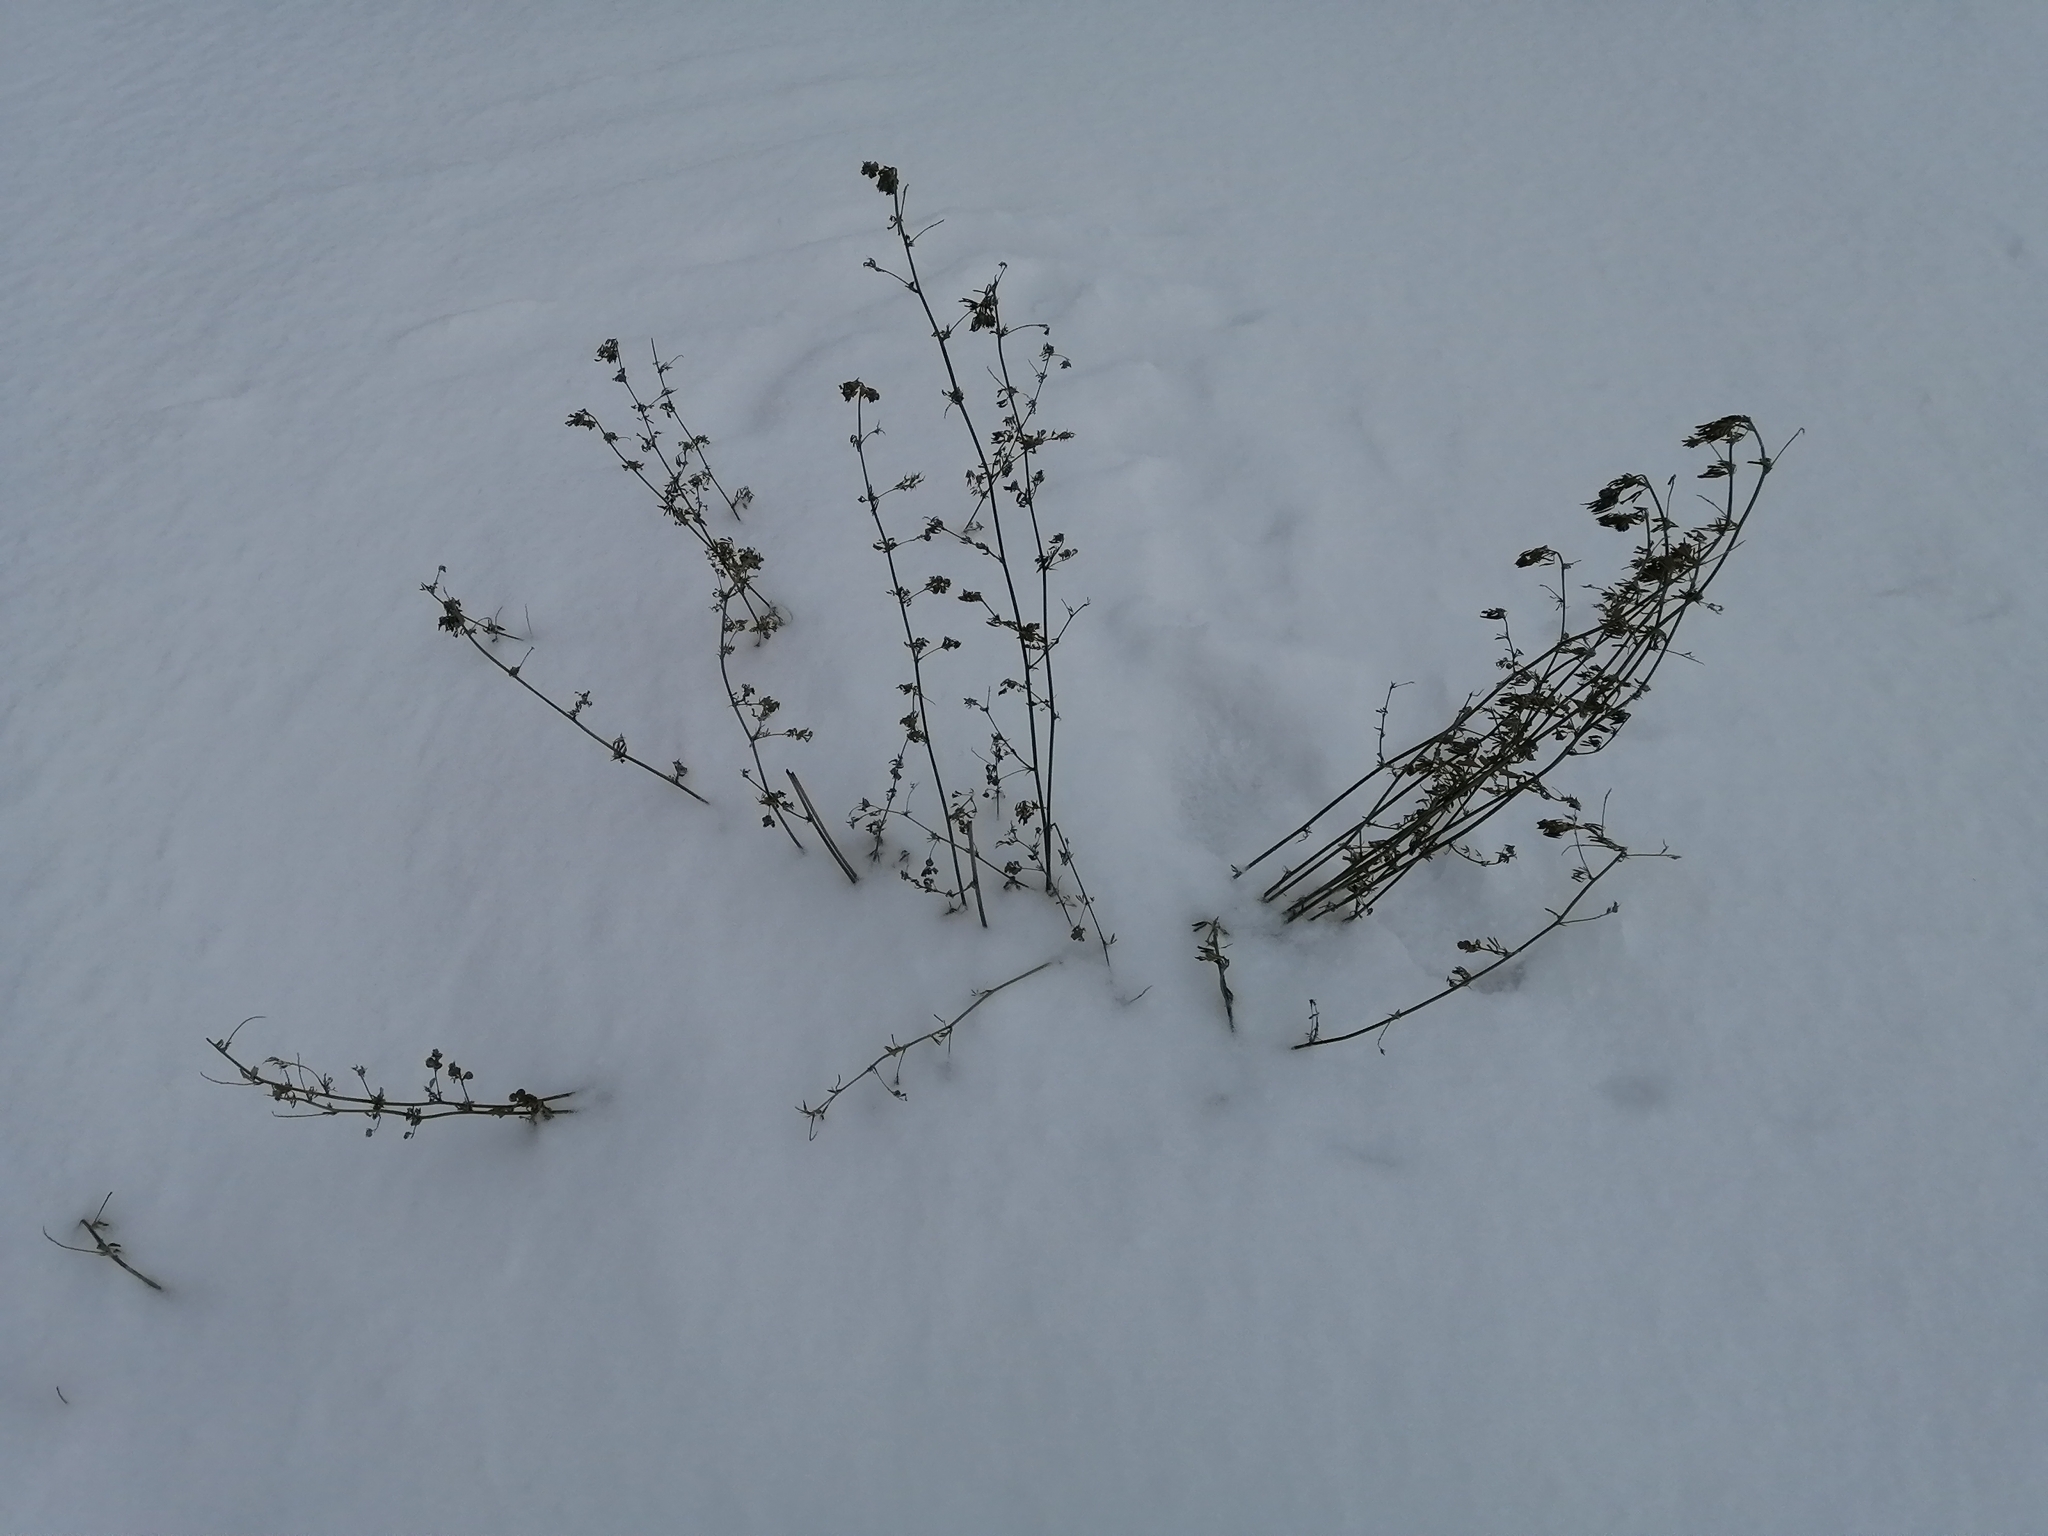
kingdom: Plantae
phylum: Tracheophyta
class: Magnoliopsida
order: Fabales
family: Fabaceae
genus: Medicago
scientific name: Medicago varia
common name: Sand lucerne
